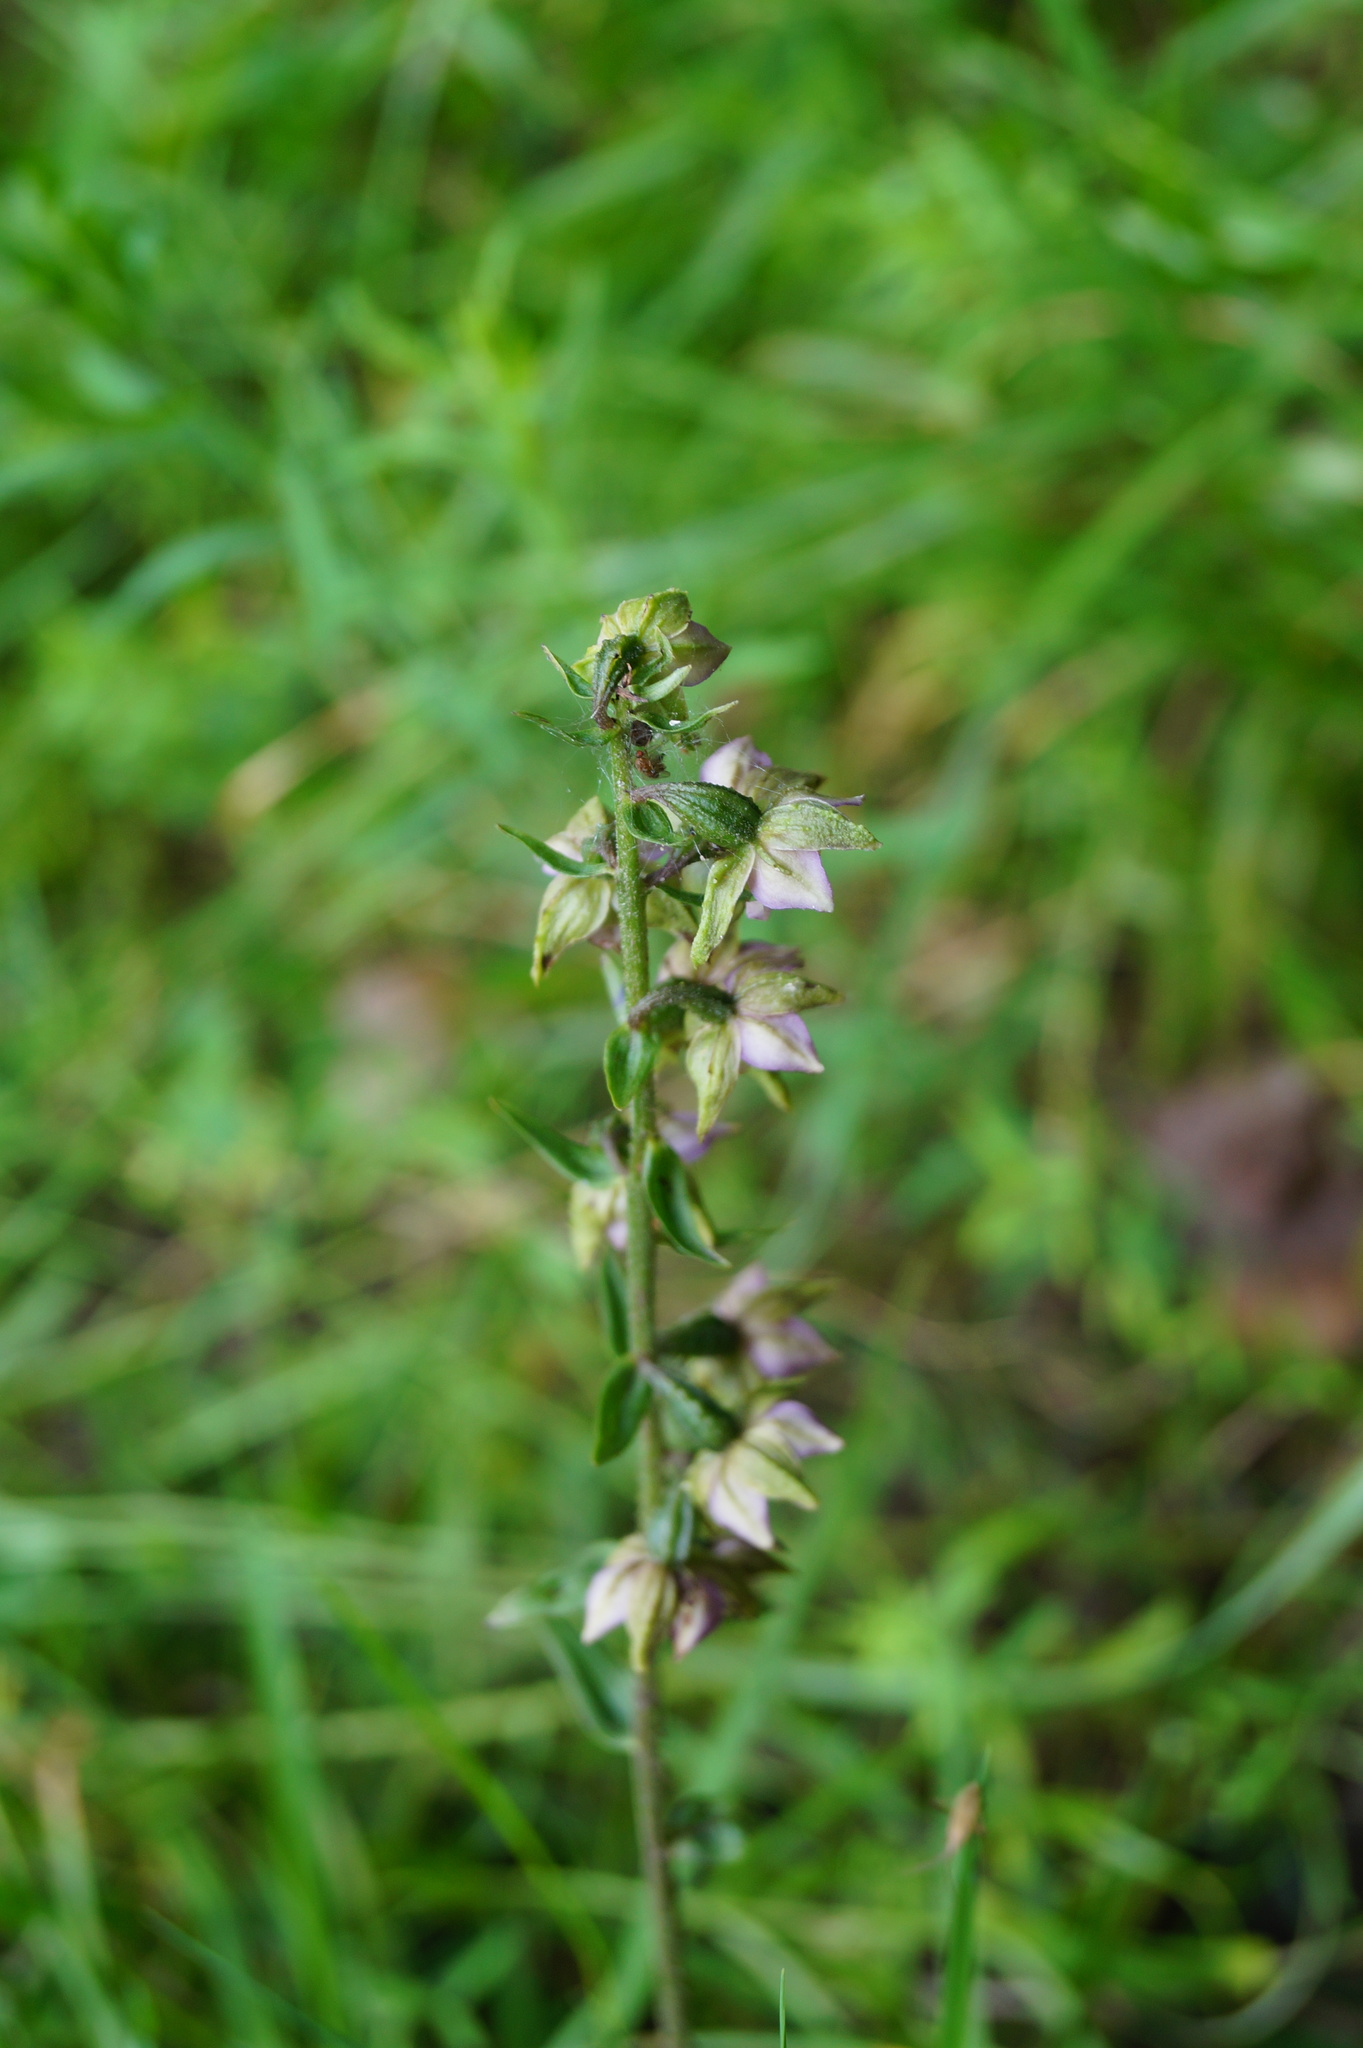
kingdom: Plantae
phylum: Tracheophyta
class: Liliopsida
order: Asparagales
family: Orchidaceae
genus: Epipactis
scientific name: Epipactis helleborine
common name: Broad-leaved helleborine
